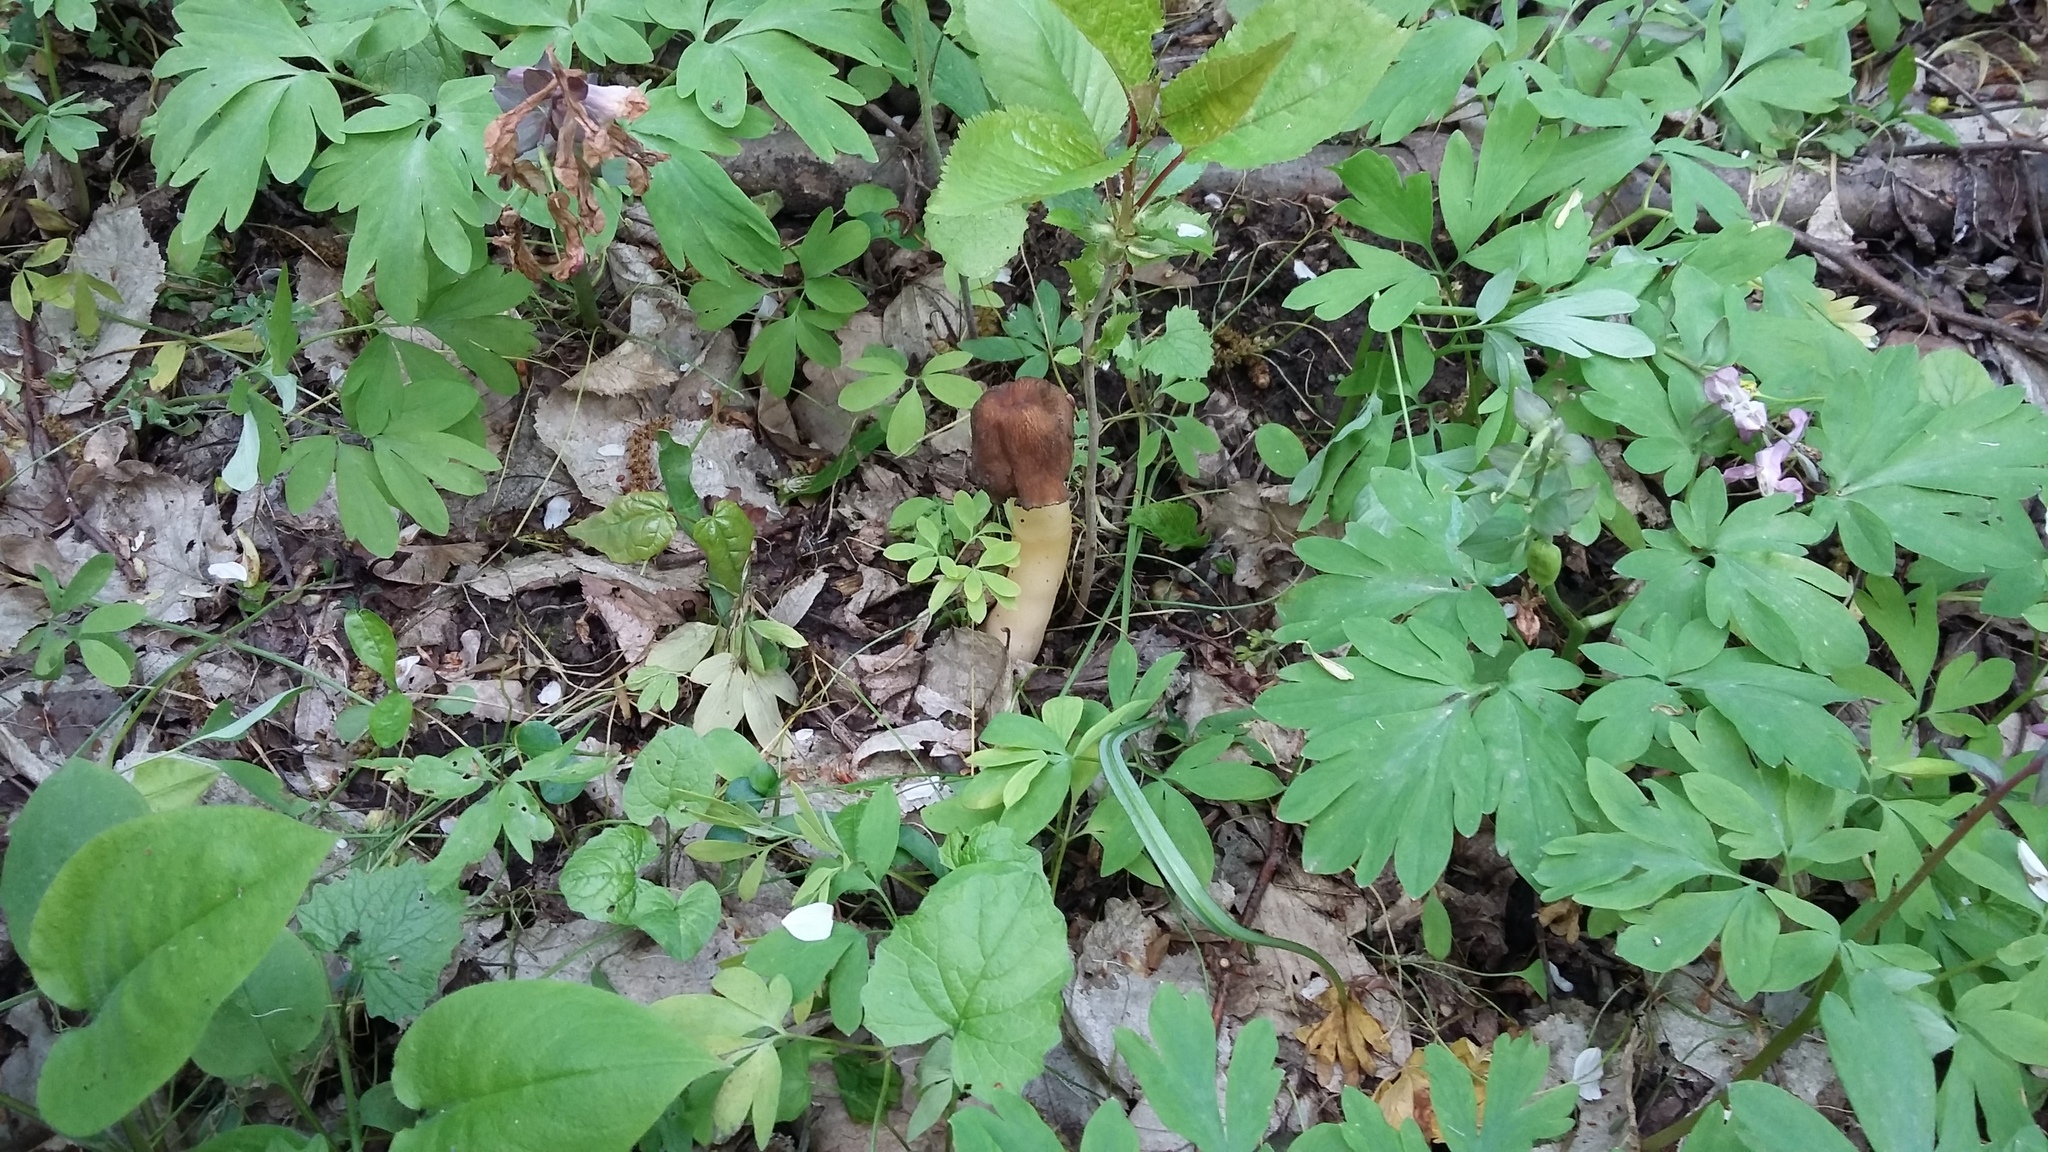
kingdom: Fungi
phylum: Ascomycota
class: Pezizomycetes
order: Pezizales
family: Morchellaceae
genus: Verpa
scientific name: Verpa conica
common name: Thimble morel
